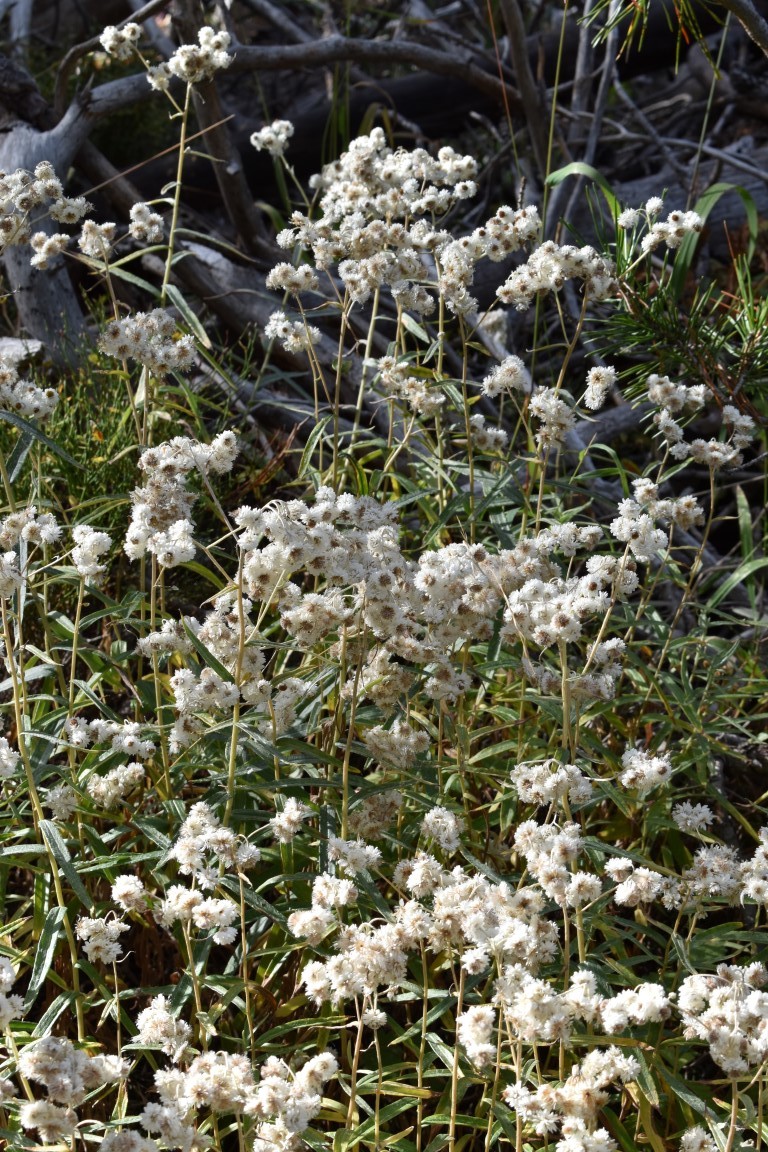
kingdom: Plantae
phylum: Tracheophyta
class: Magnoliopsida
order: Asterales
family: Asteraceae
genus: Anaphalis
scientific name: Anaphalis margaritacea
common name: Pearly everlasting
